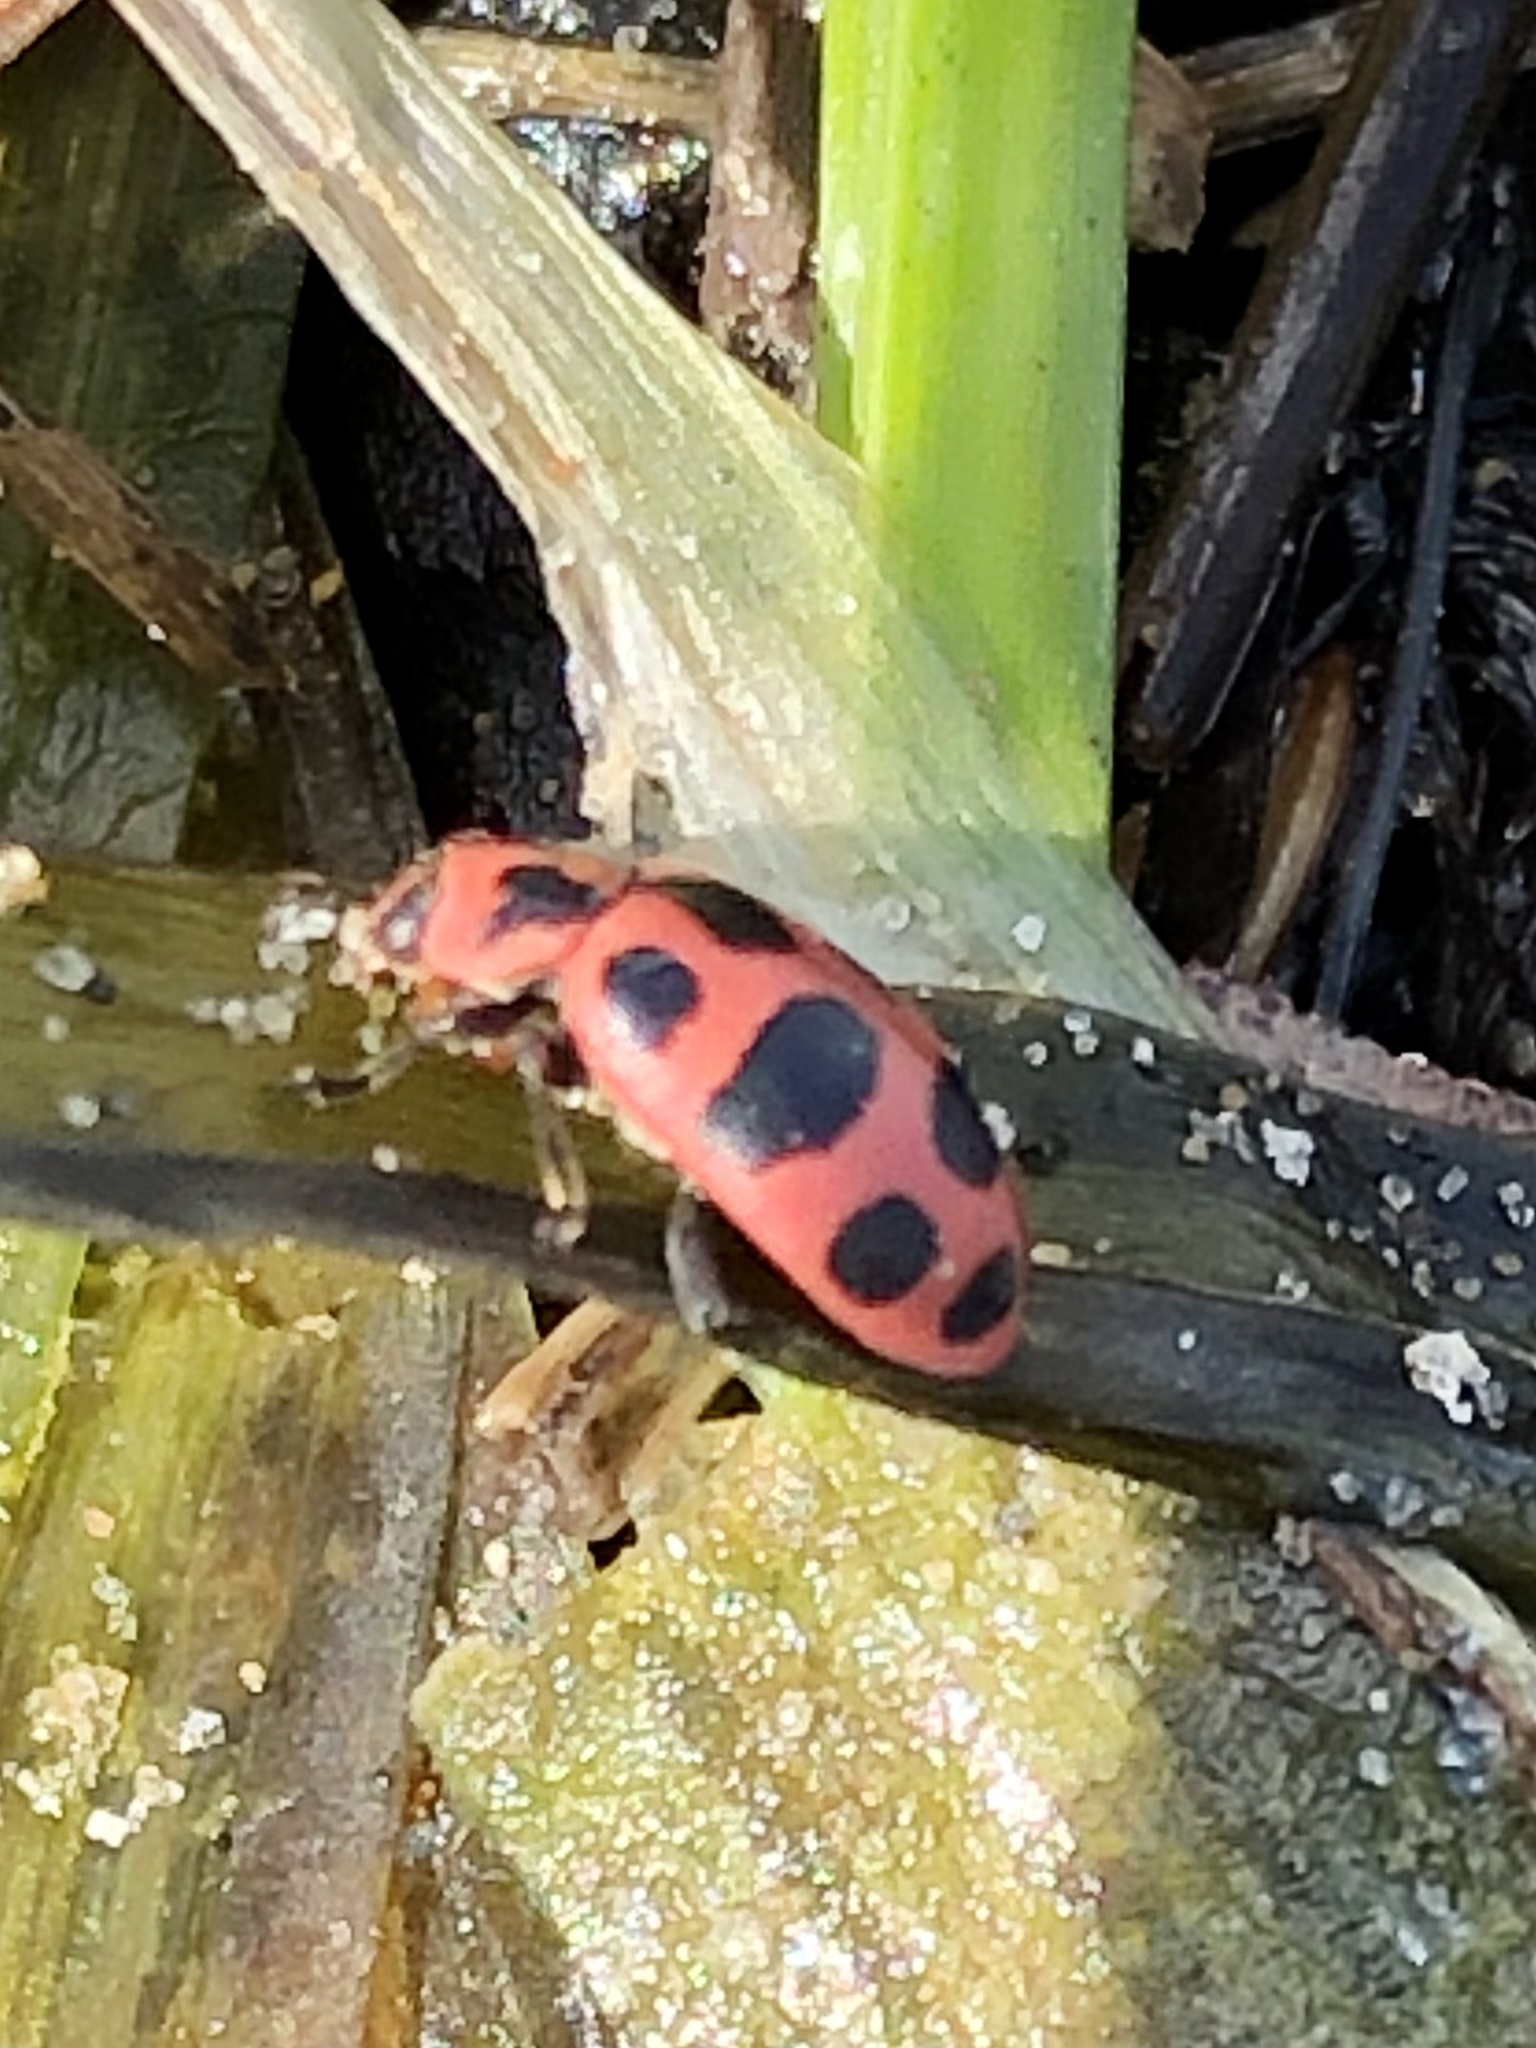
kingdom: Animalia
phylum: Arthropoda
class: Insecta
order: Coleoptera
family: Coccinellidae
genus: Coleomegilla
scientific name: Coleomegilla maculata
